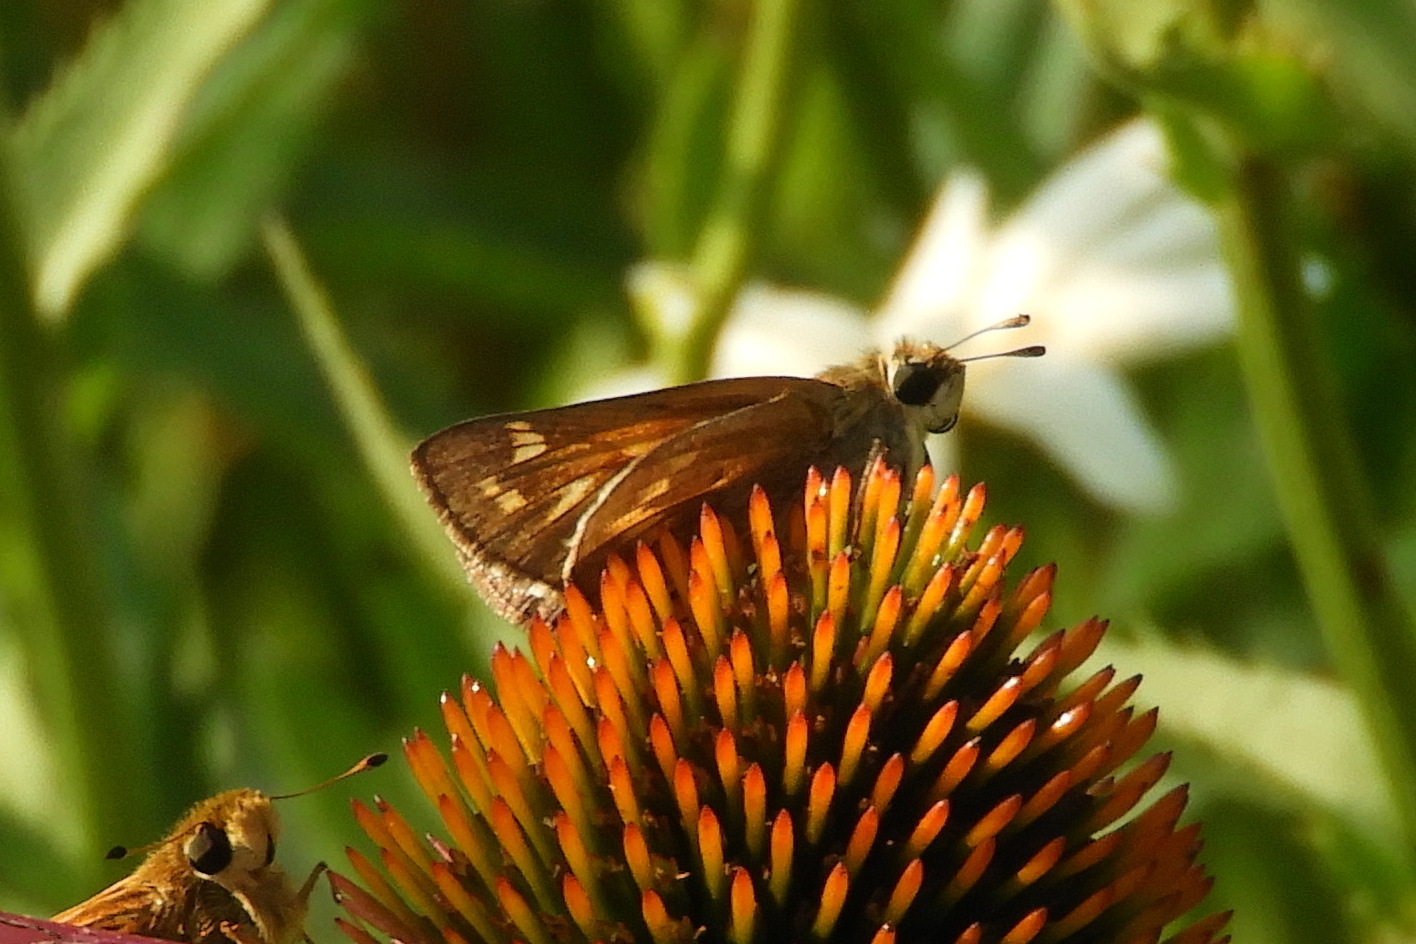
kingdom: Animalia
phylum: Arthropoda
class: Insecta
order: Lepidoptera
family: Hesperiidae
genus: Atalopedes
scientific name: Atalopedes
